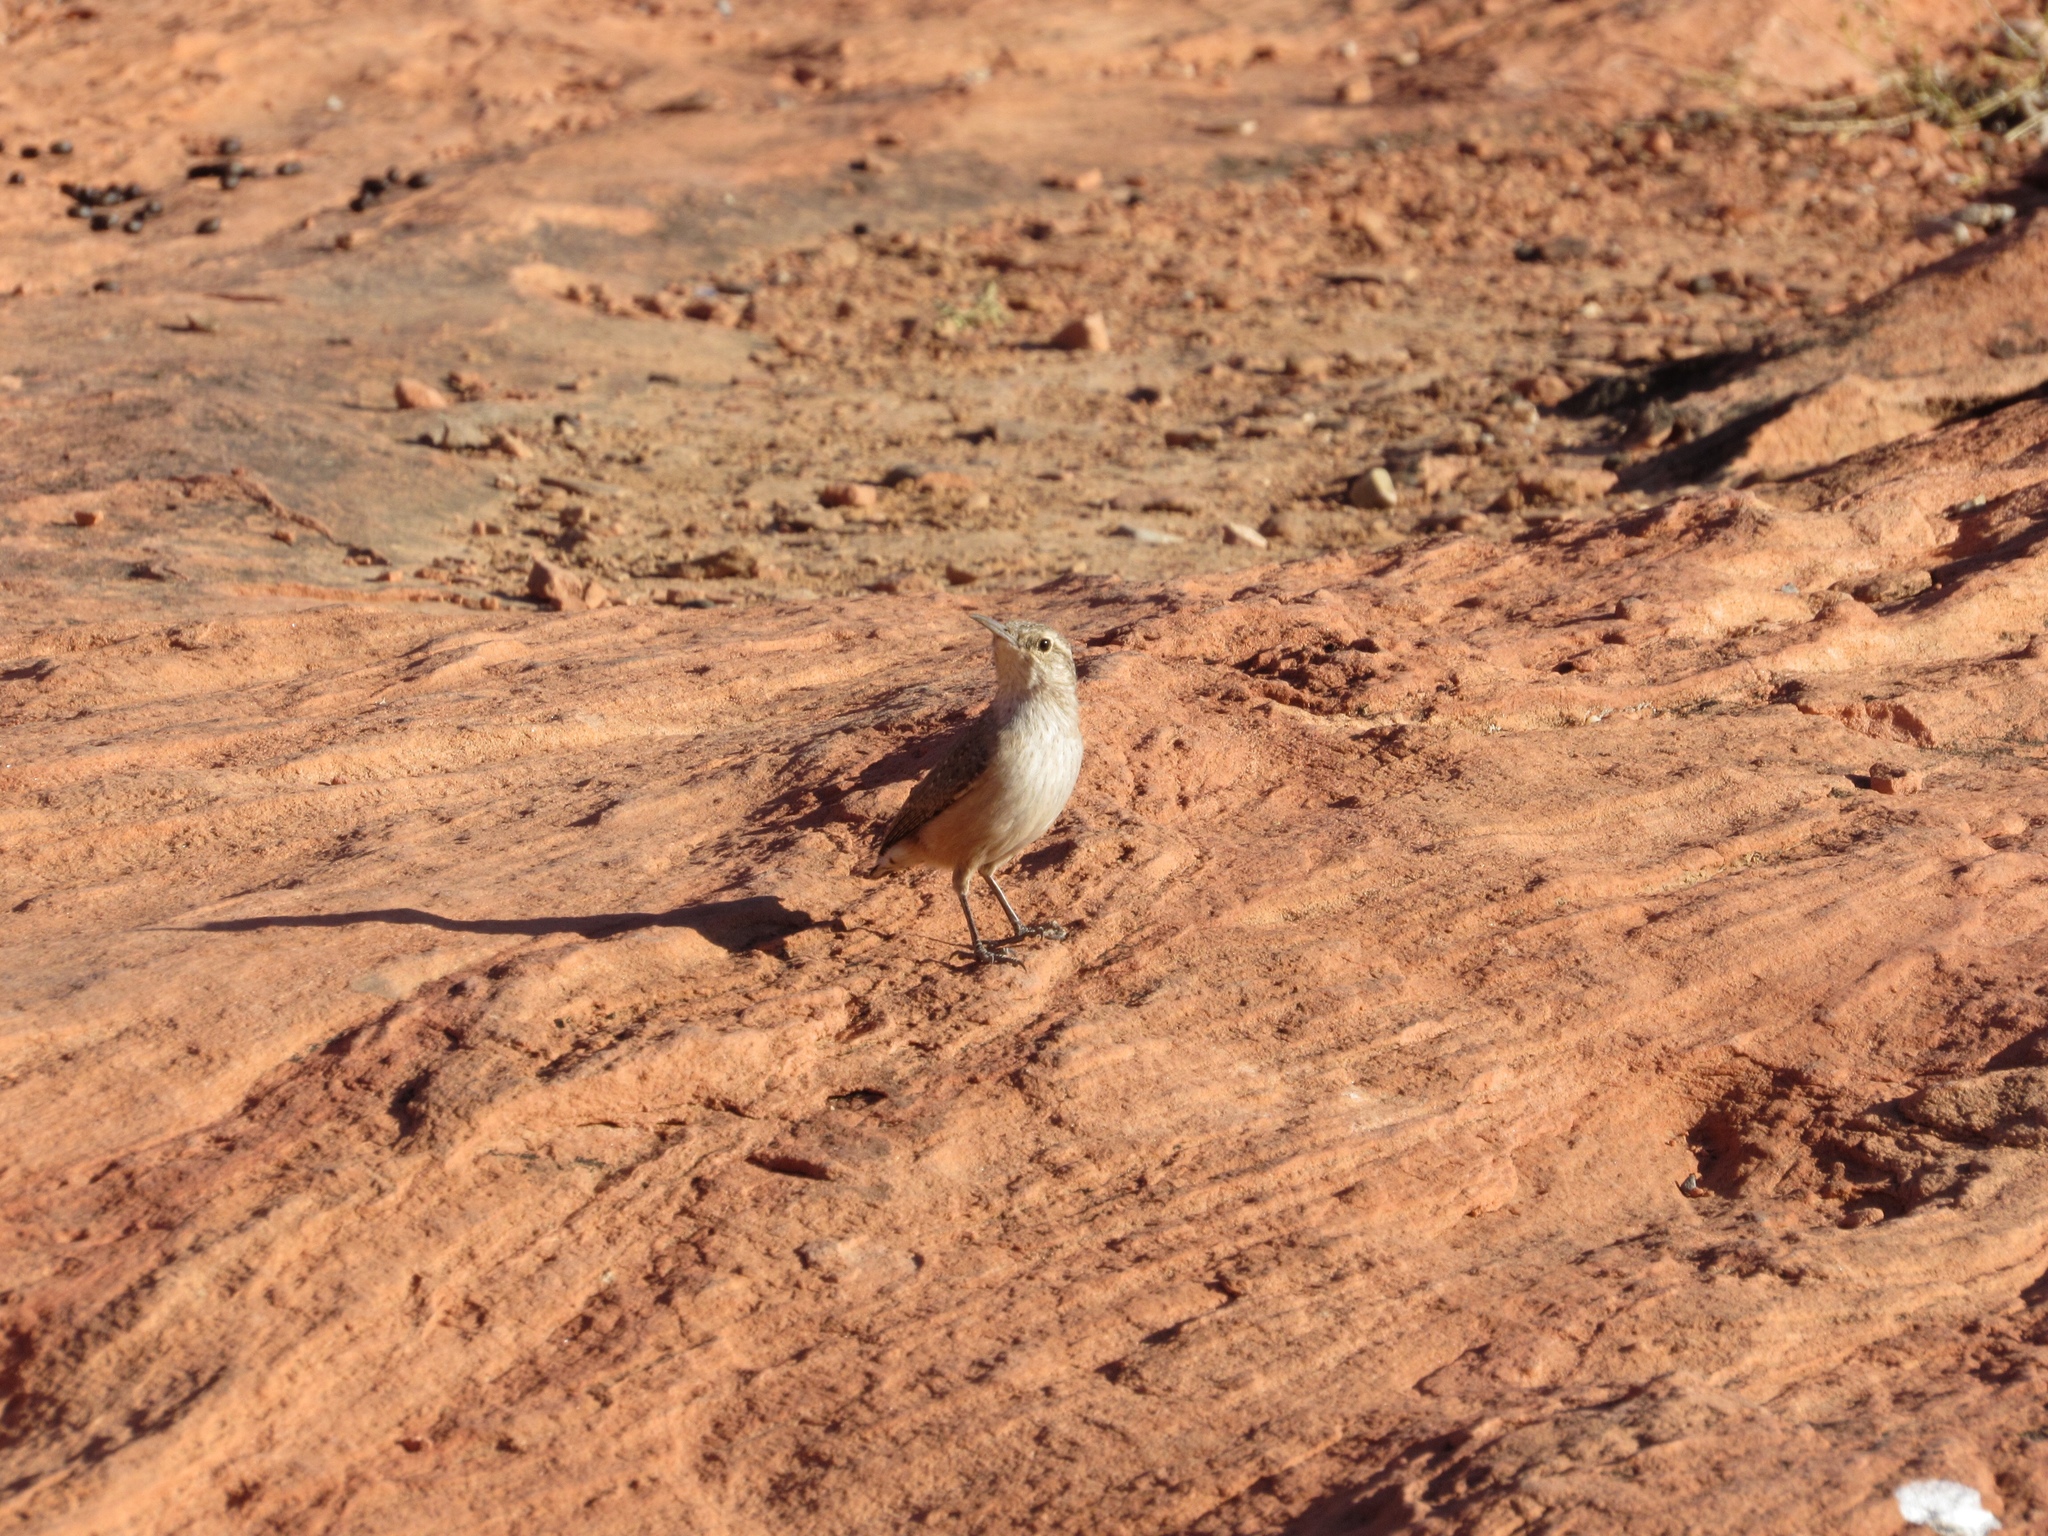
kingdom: Animalia
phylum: Chordata
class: Aves
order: Passeriformes
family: Troglodytidae
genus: Salpinctes
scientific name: Salpinctes obsoletus
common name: Rock wren
